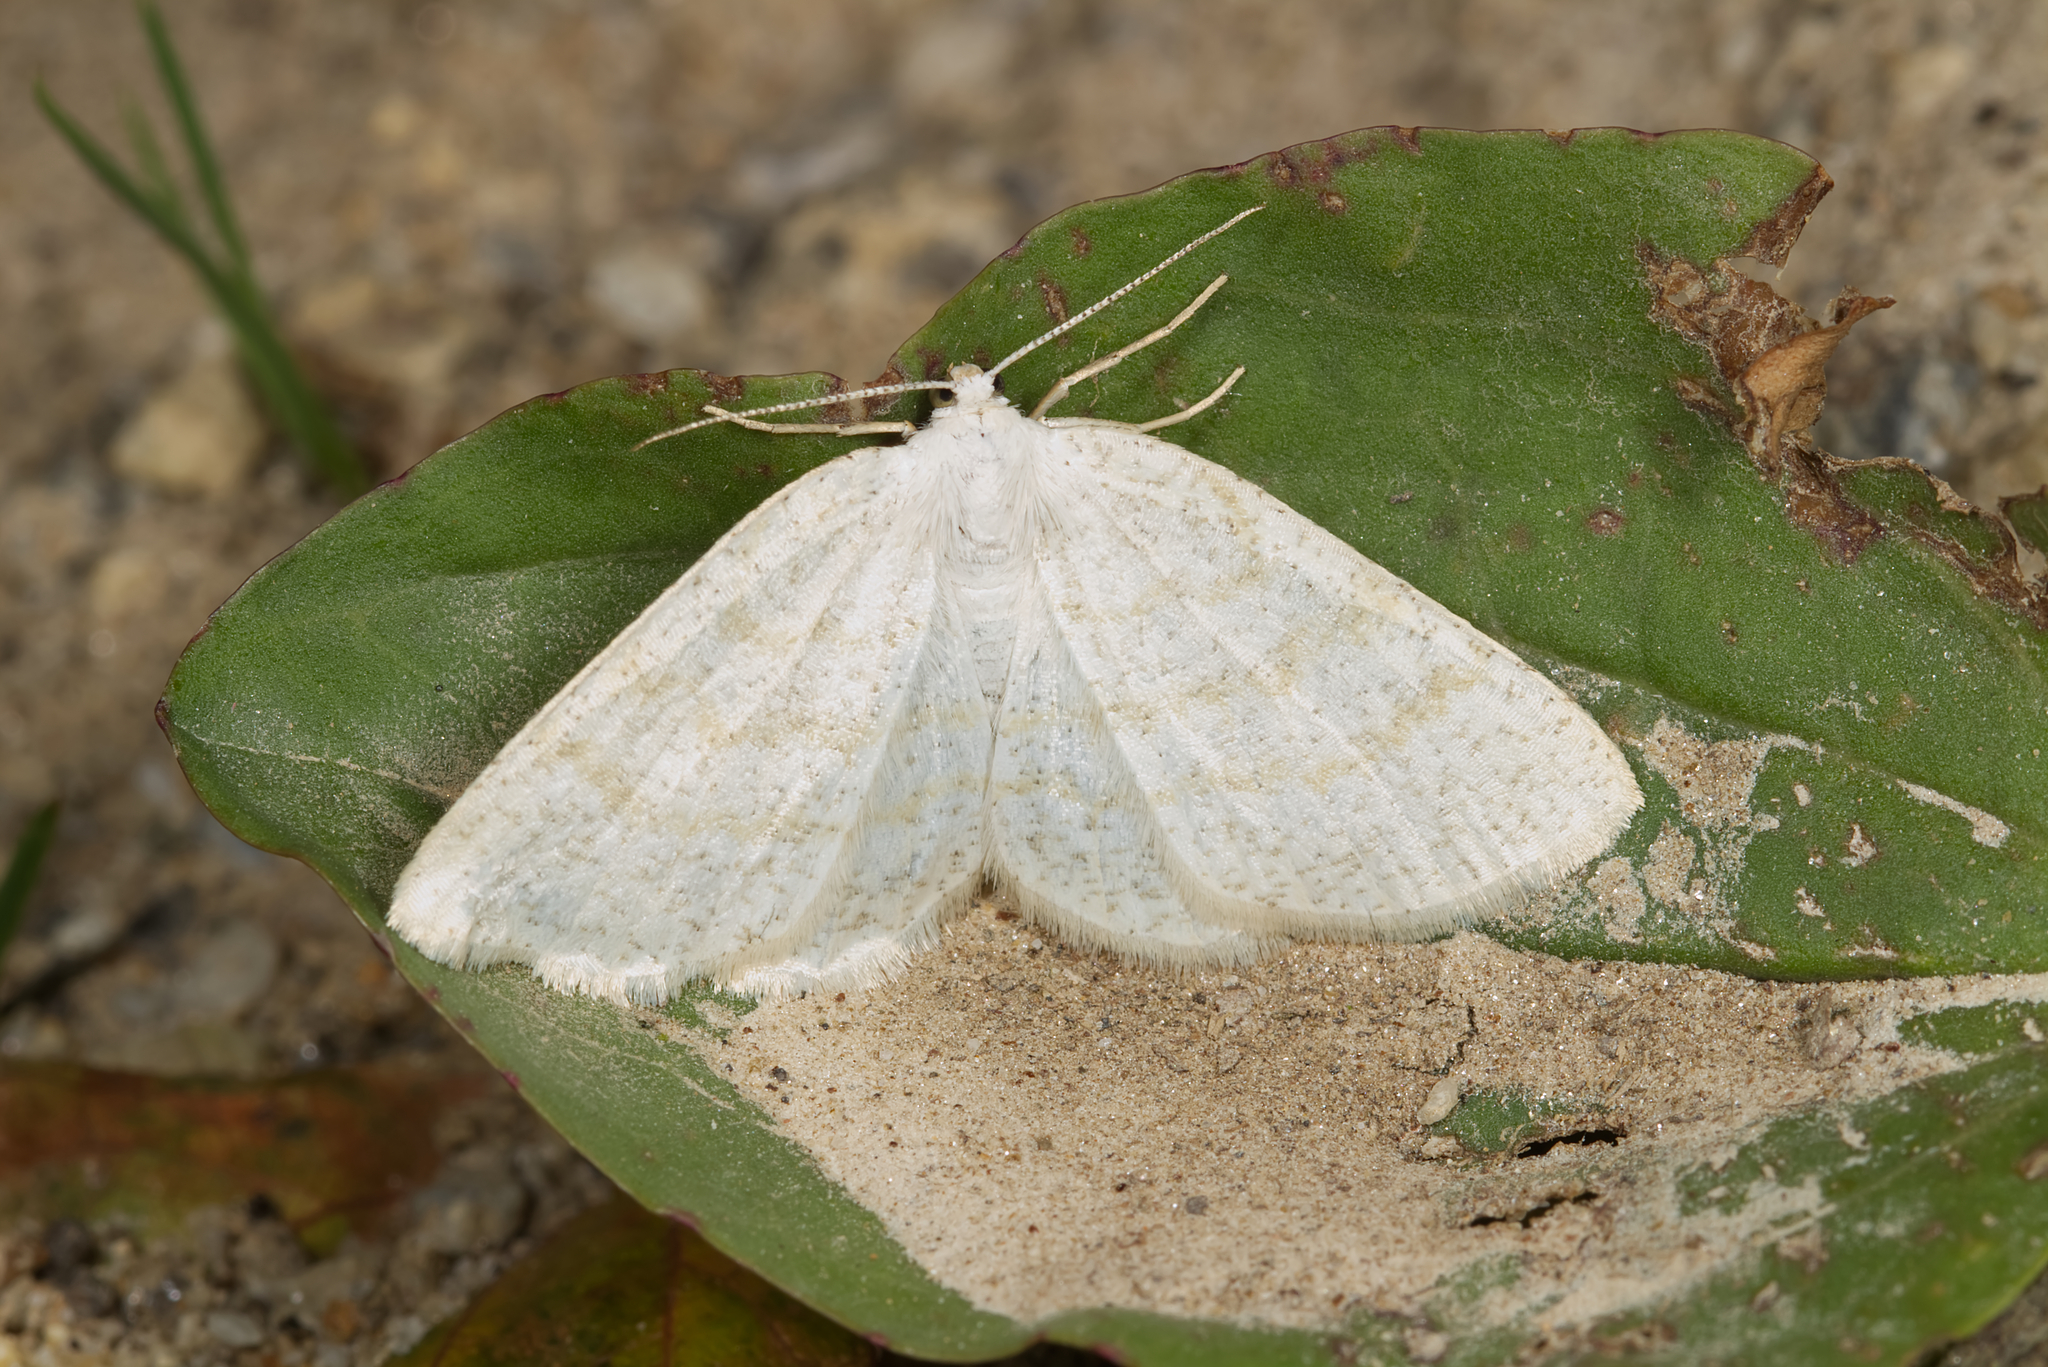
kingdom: Animalia
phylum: Arthropoda
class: Insecta
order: Lepidoptera
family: Geometridae
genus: Cabera
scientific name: Cabera exanthemata
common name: Common wave
